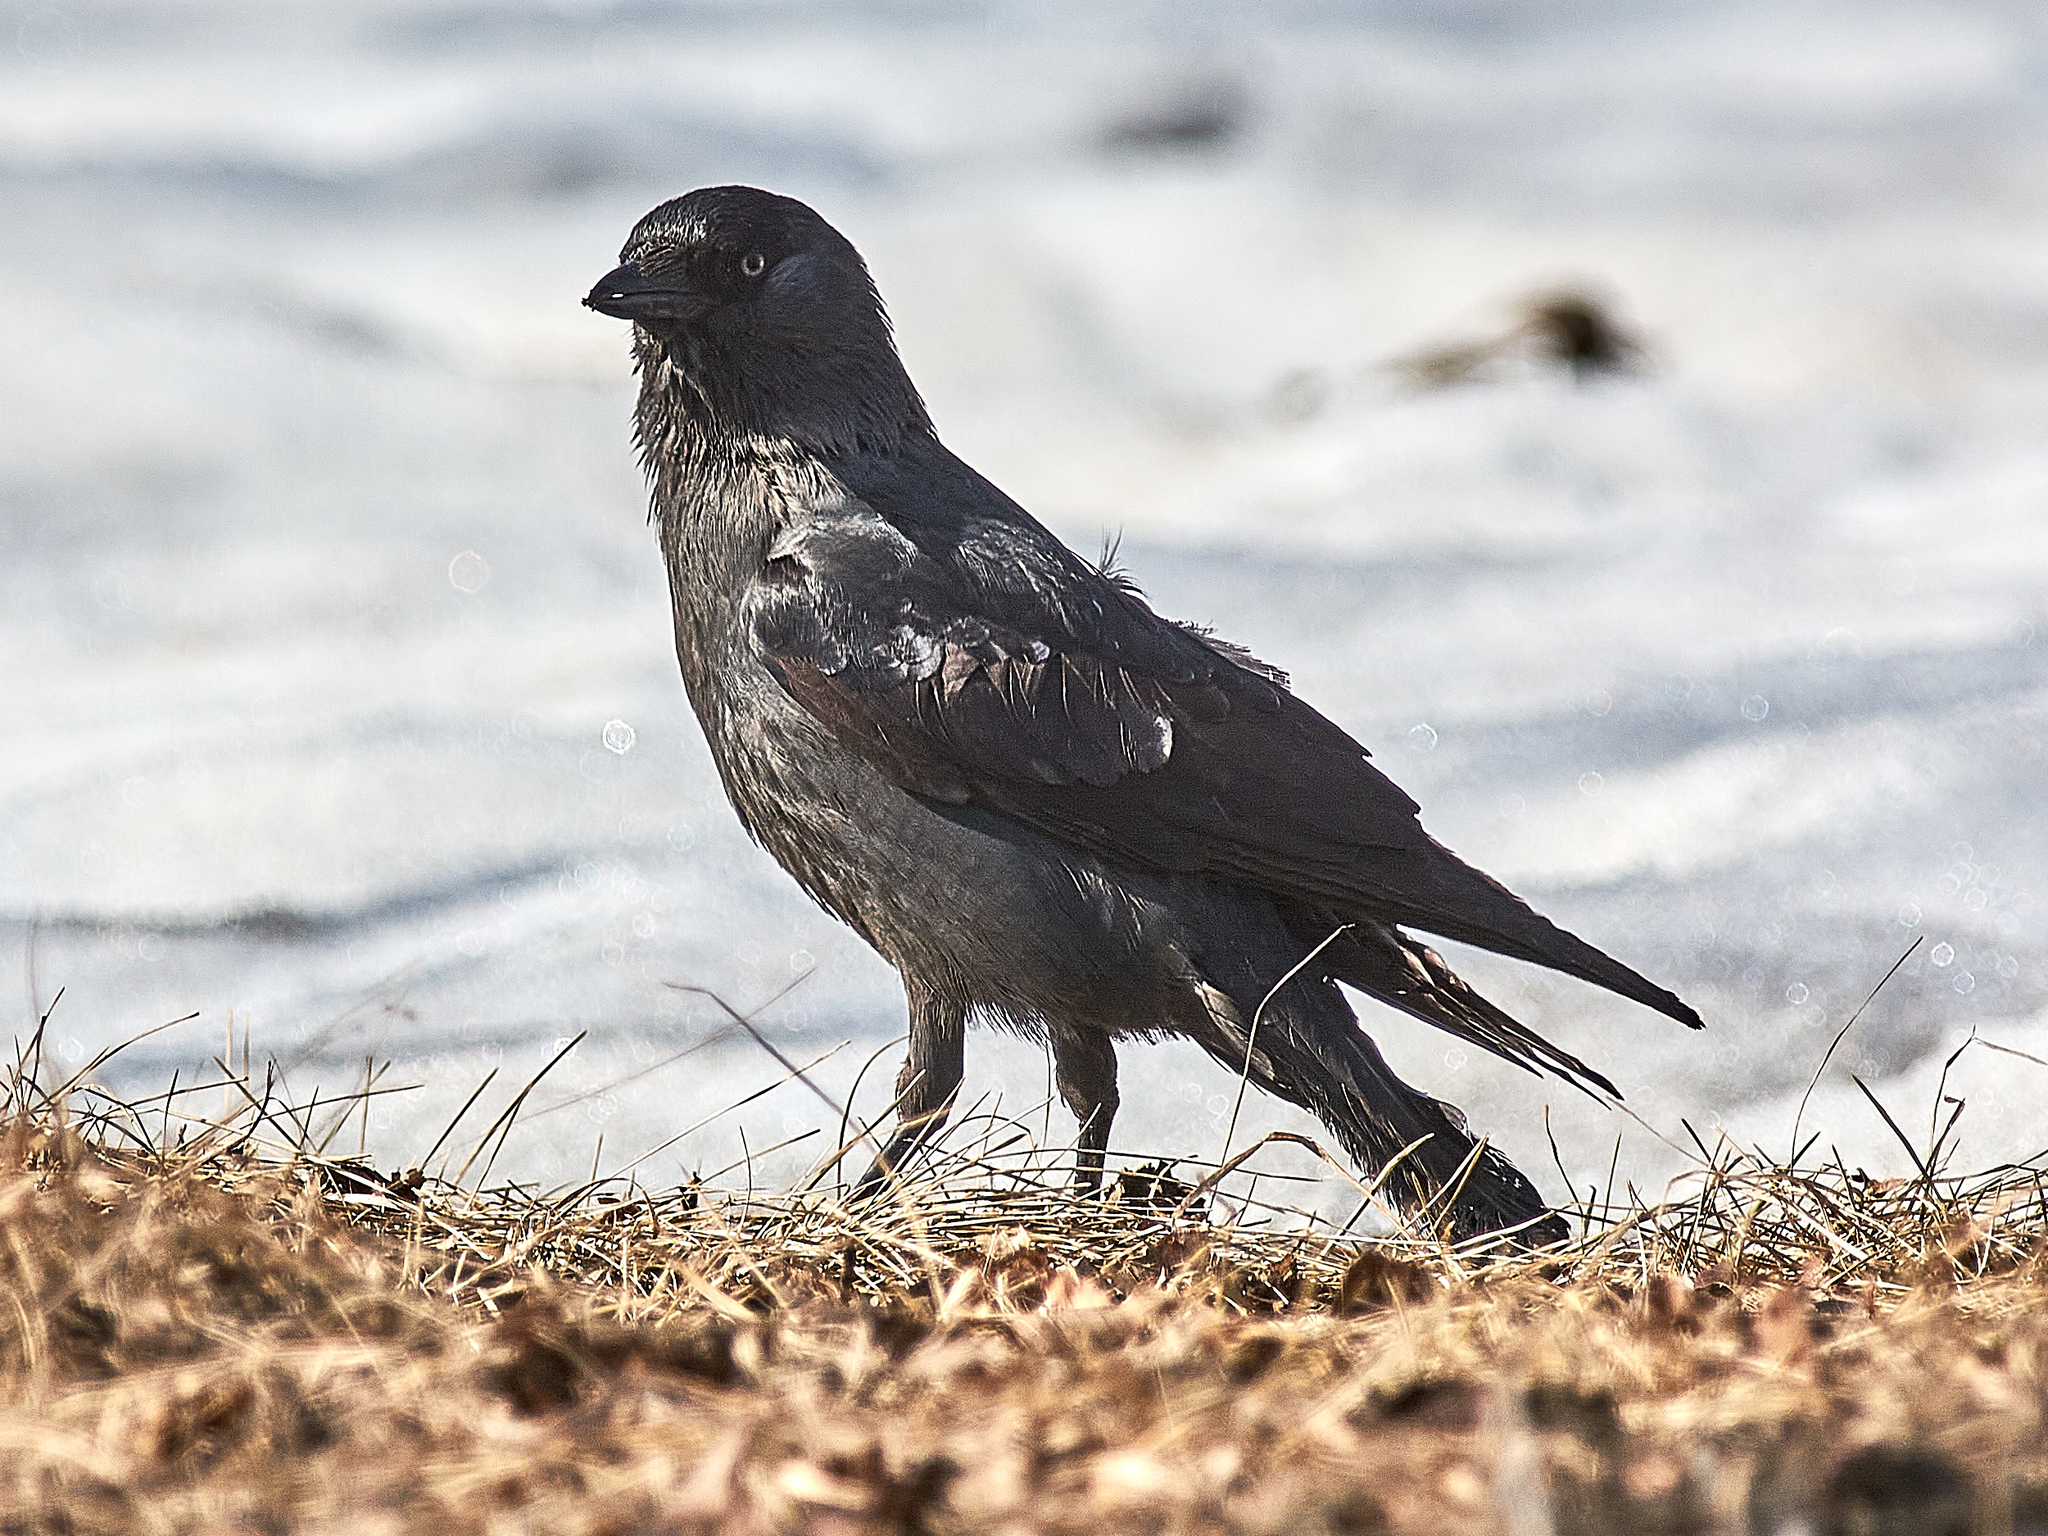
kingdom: Animalia
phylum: Chordata
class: Aves
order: Passeriformes
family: Corvidae
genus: Coloeus
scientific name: Coloeus monedula
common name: Western jackdaw
